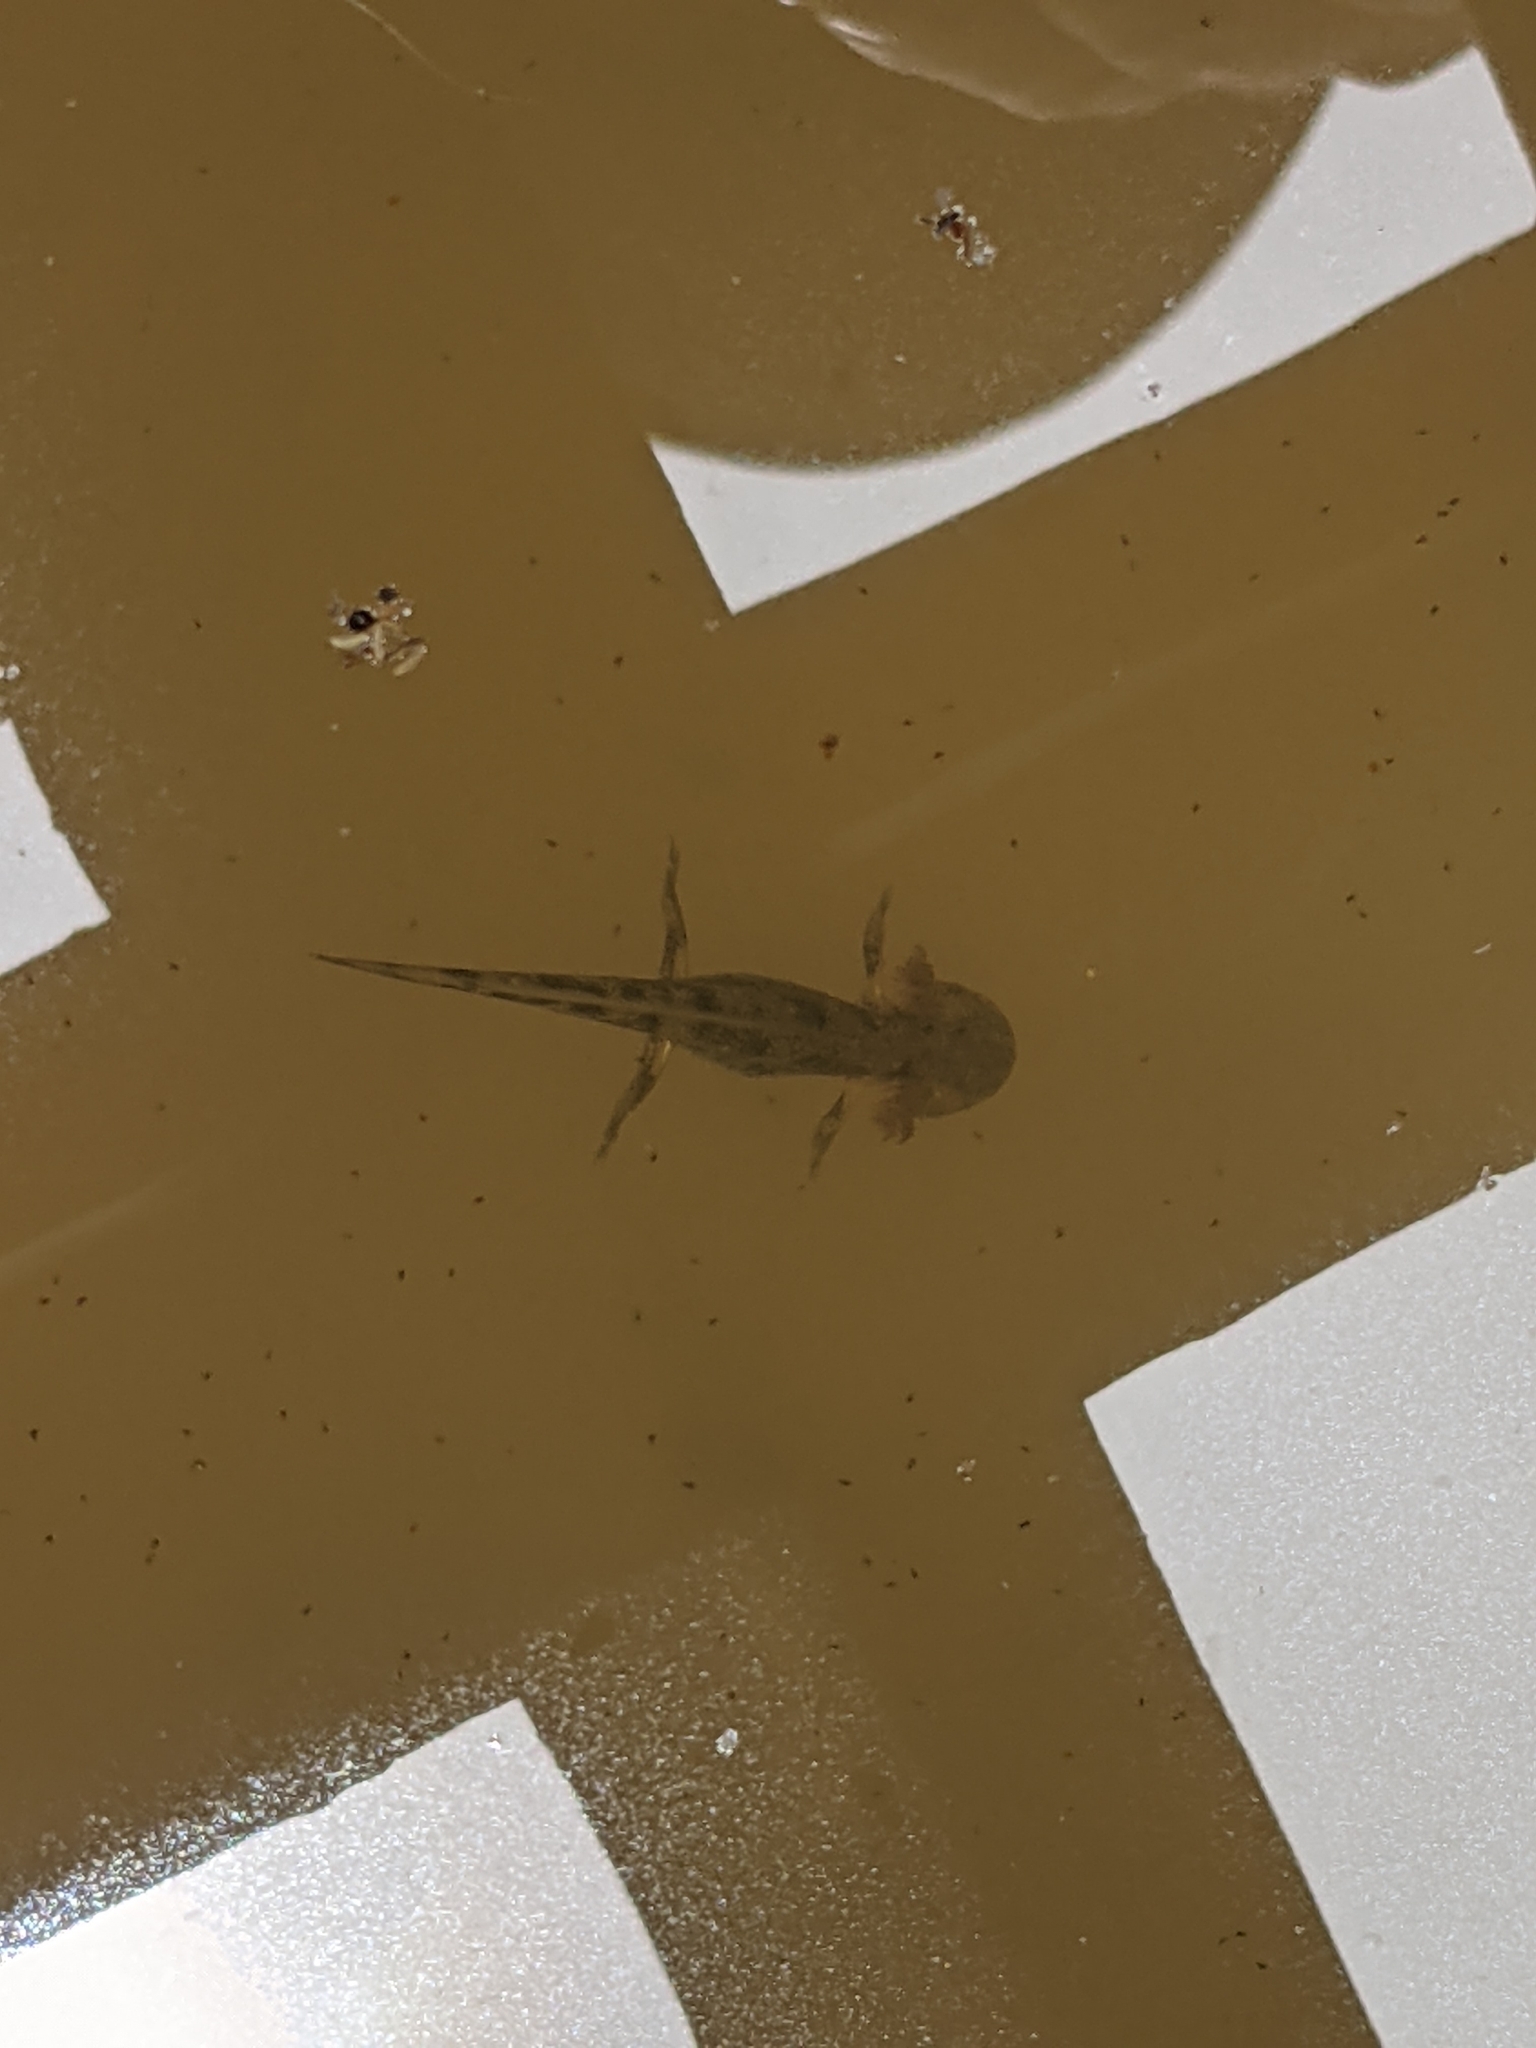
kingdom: Animalia
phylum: Chordata
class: Amphibia
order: Caudata
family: Salamandridae
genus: Salamandra
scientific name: Salamandra salamandra
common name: Fire salamander
